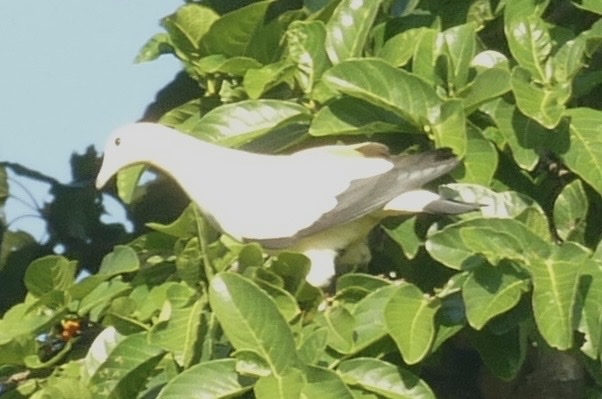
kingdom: Animalia
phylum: Chordata
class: Aves
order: Columbiformes
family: Columbidae
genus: Ducula
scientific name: Ducula bicolor
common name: Pied imperial pigeon
